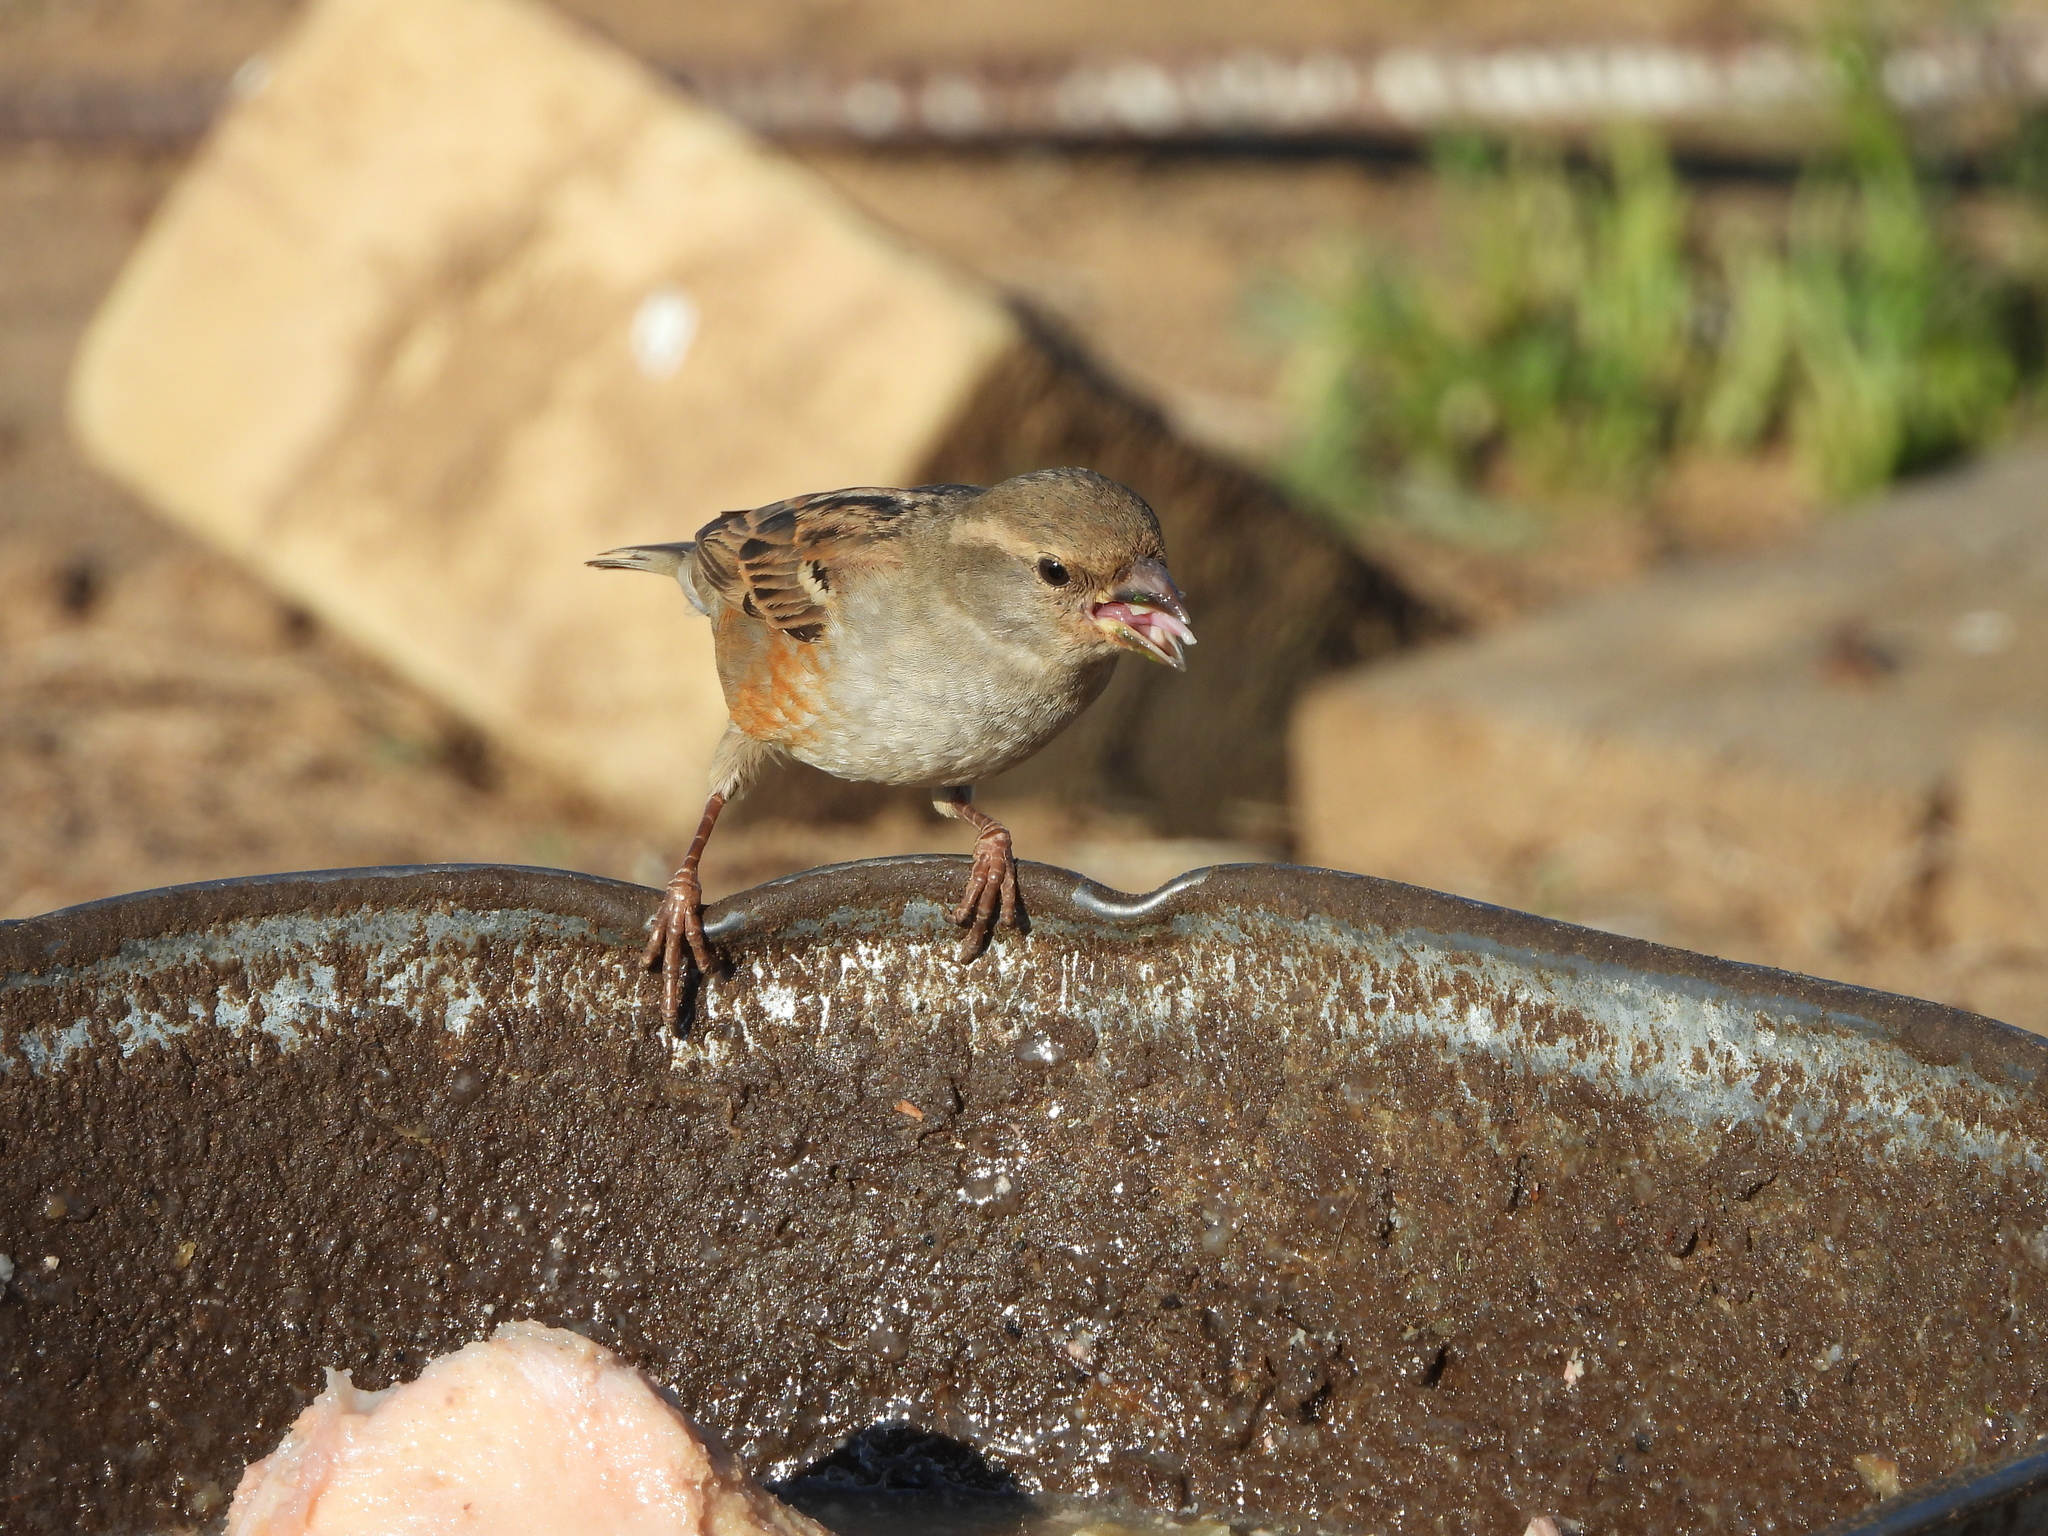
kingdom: Animalia
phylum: Chordata
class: Aves
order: Passeriformes
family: Passeridae
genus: Passer
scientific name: Passer domesticus
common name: House sparrow
